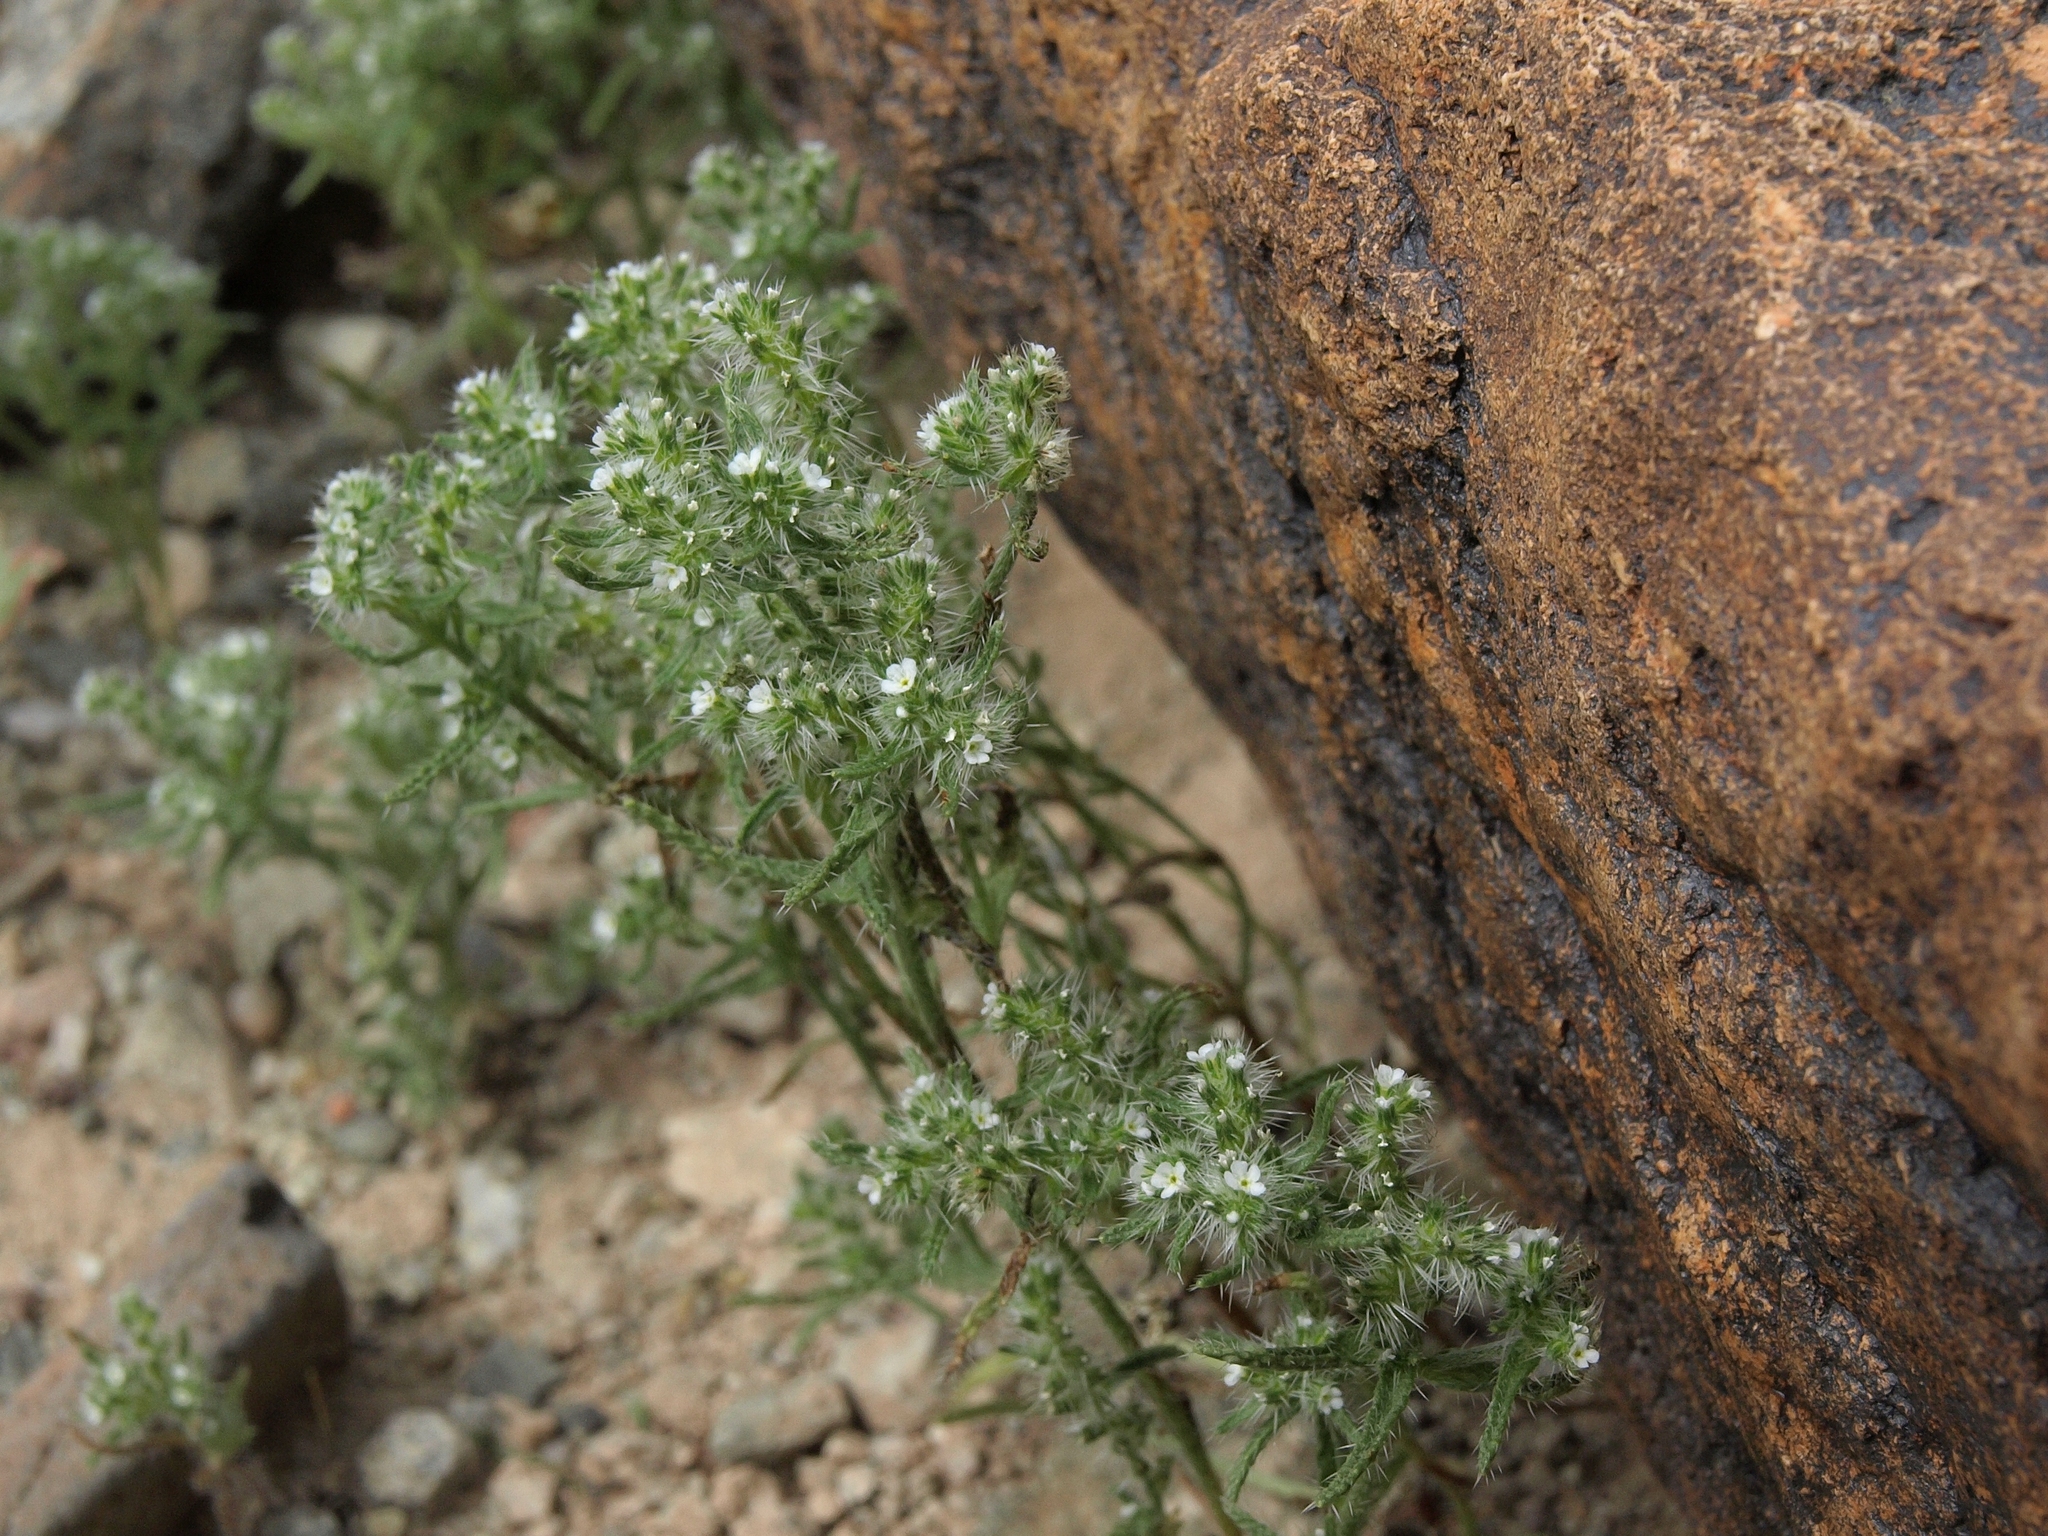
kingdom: Plantae
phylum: Tracheophyta
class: Magnoliopsida
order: Boraginales
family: Boraginaceae
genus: Johnstonella
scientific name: Johnstonella angustifolia
